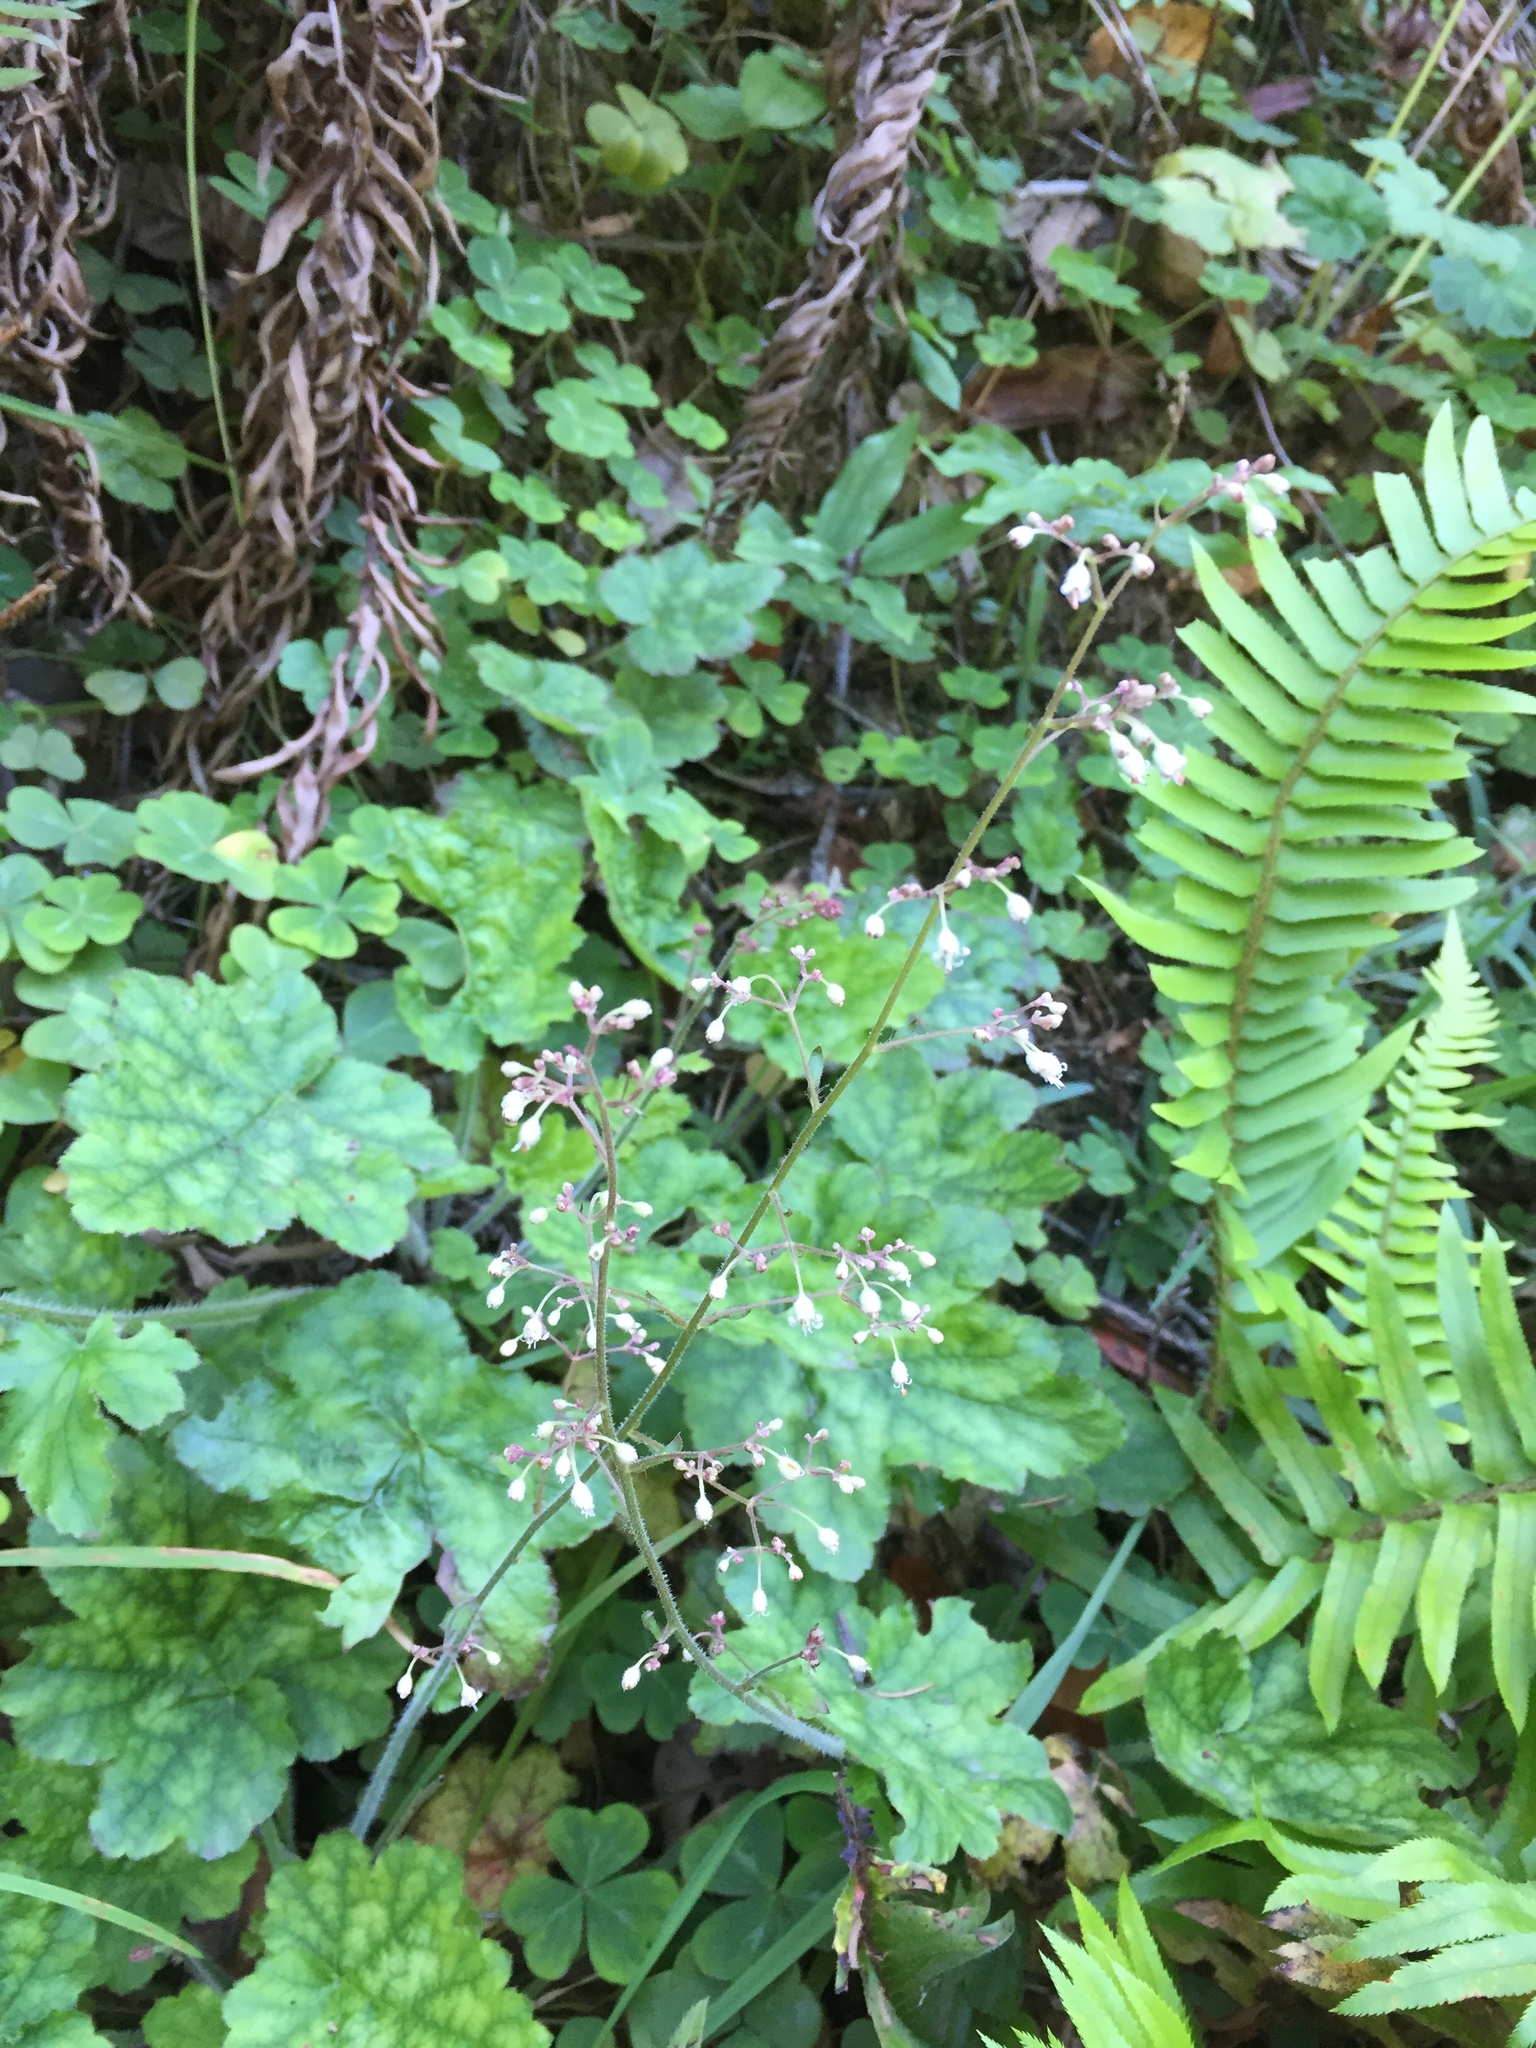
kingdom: Plantae
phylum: Tracheophyta
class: Magnoliopsida
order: Saxifragales
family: Saxifragaceae
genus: Heuchera
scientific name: Heuchera micrantha
